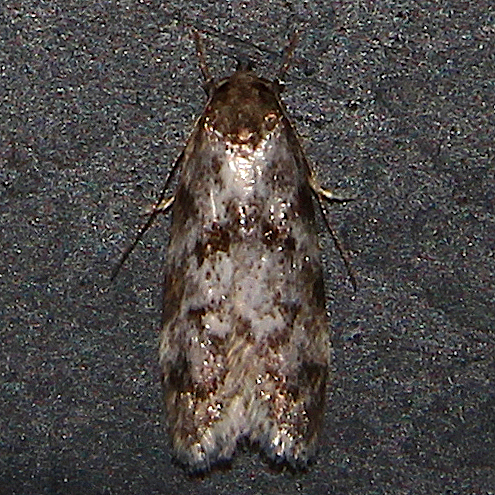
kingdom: Animalia
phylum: Arthropoda
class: Insecta
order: Lepidoptera
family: Oecophoridae
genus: Tingena
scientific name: Tingena clarkei
